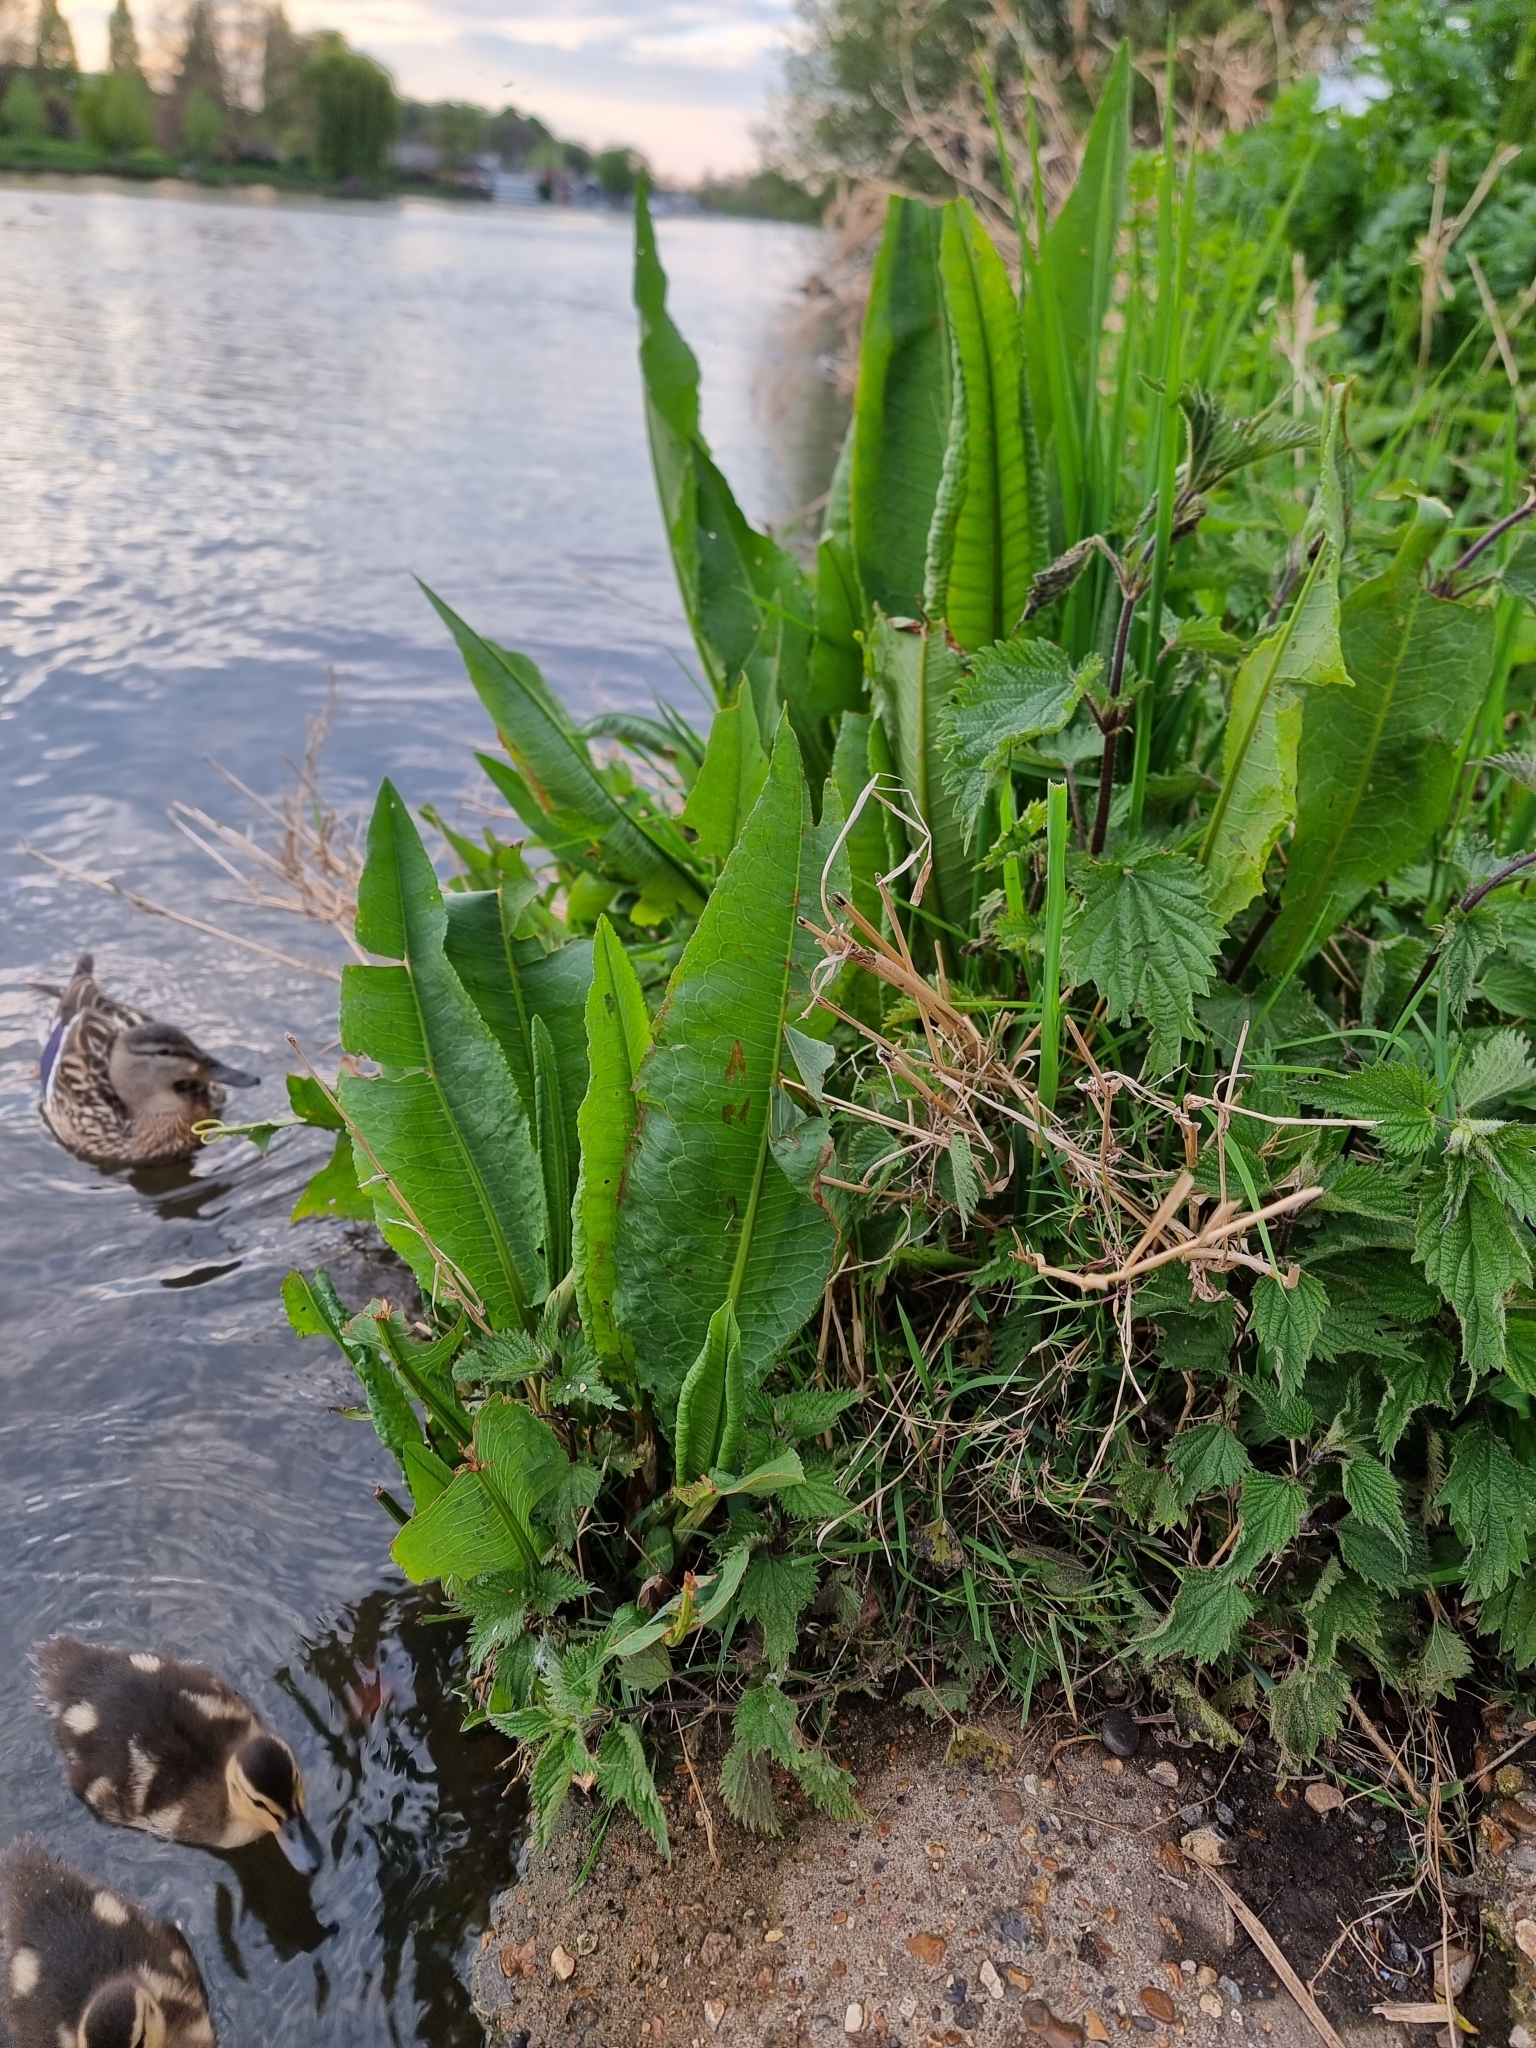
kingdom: Plantae
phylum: Tracheophyta
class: Magnoliopsida
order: Caryophyllales
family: Polygonaceae
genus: Rumex
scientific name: Rumex hydrolapathum
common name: Water dock
